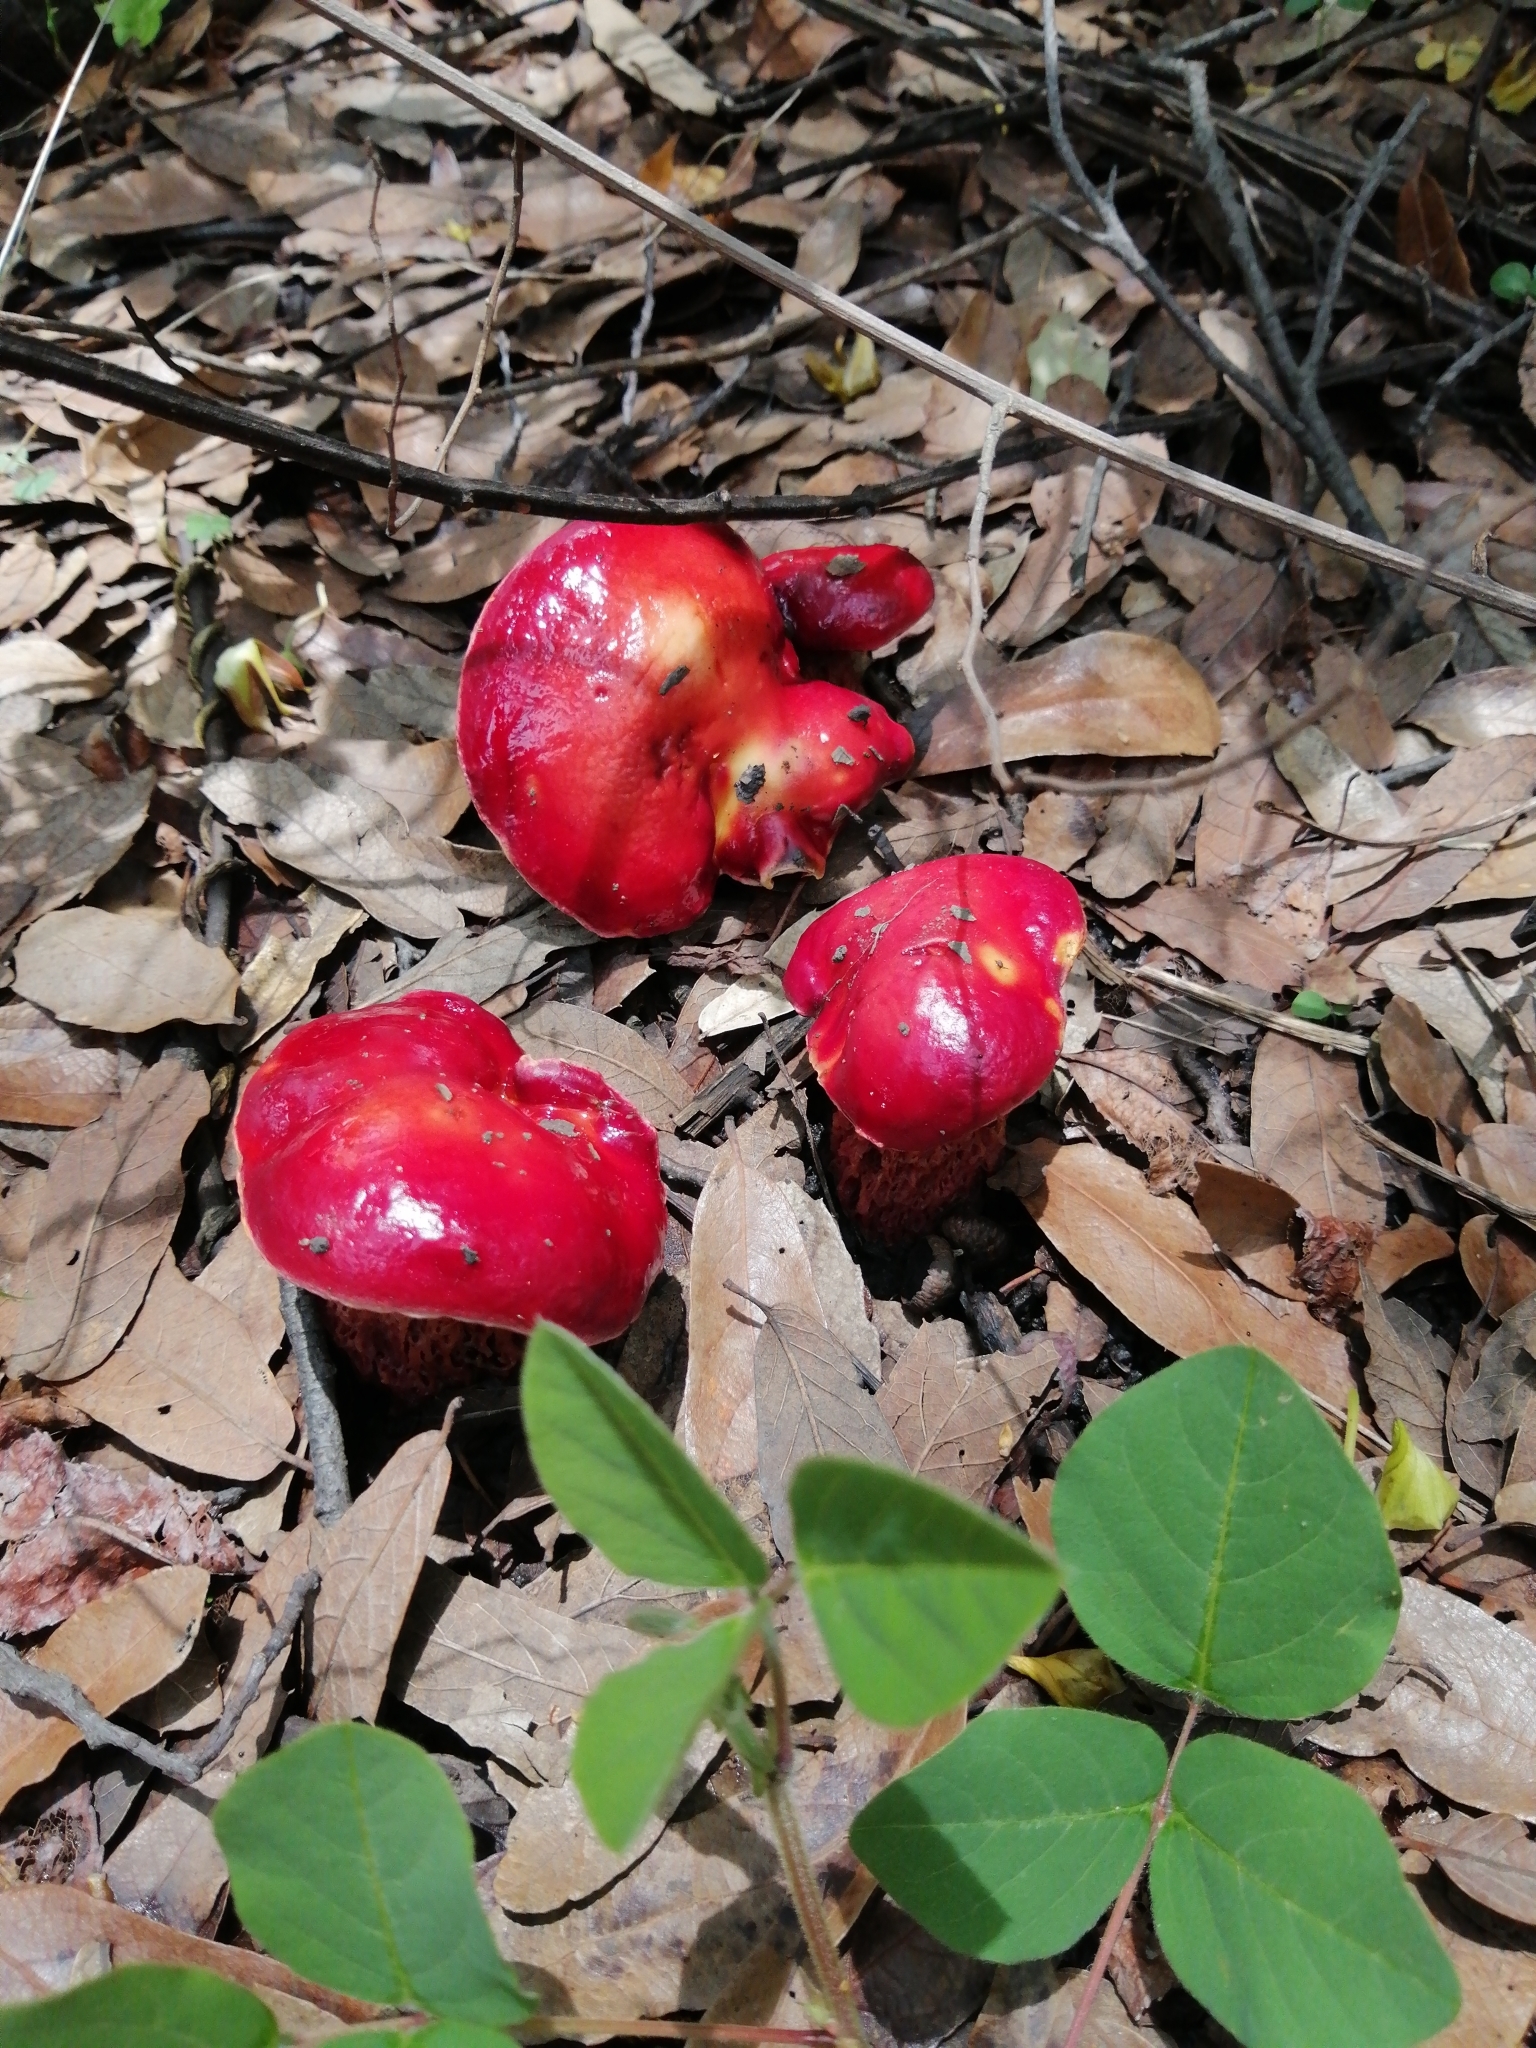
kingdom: Fungi
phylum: Basidiomycota
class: Agaricomycetes
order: Boletales
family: Boletaceae
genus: Butyriboletus
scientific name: Butyriboletus frostii
